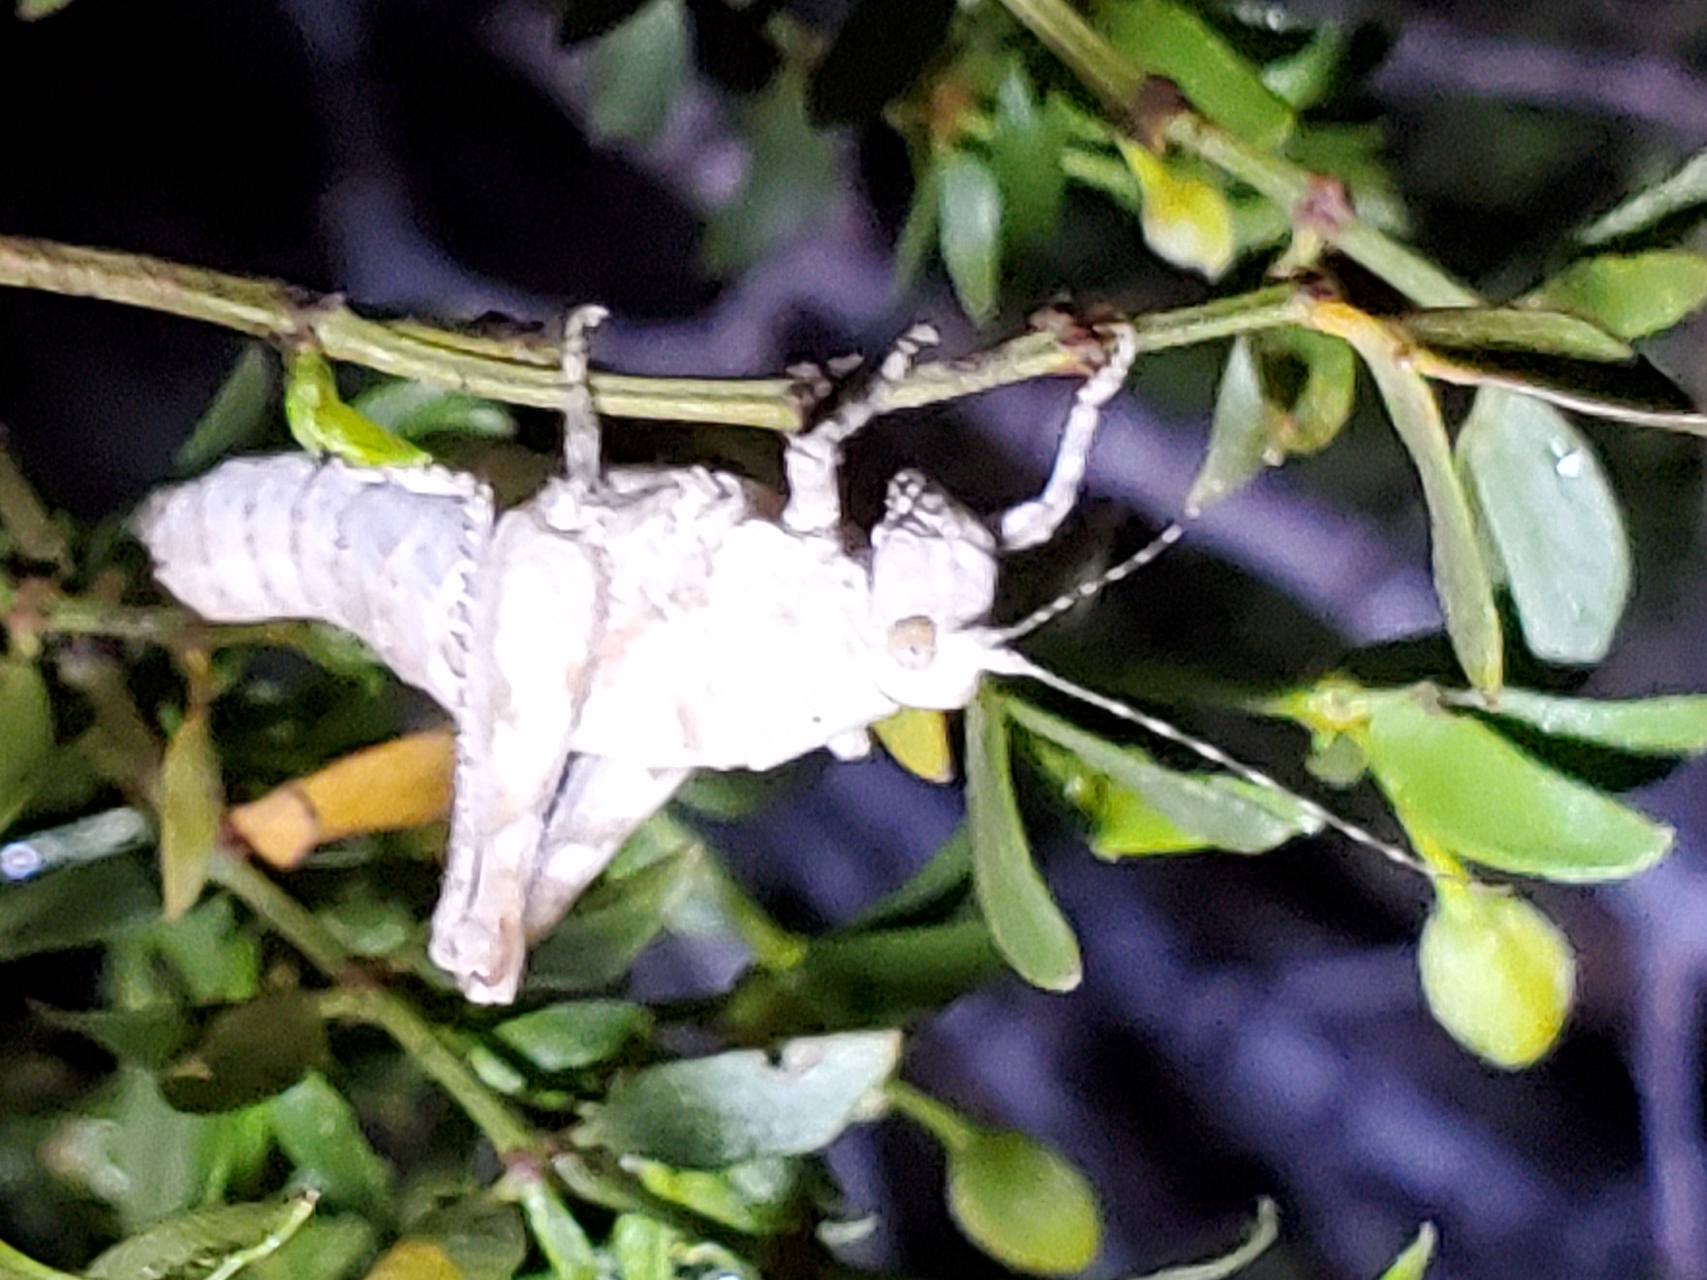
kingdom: Animalia
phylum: Arthropoda
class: Insecta
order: Orthoptera
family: Tanaoceridae
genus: Tanaocerus
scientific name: Tanaocerus koebelei
